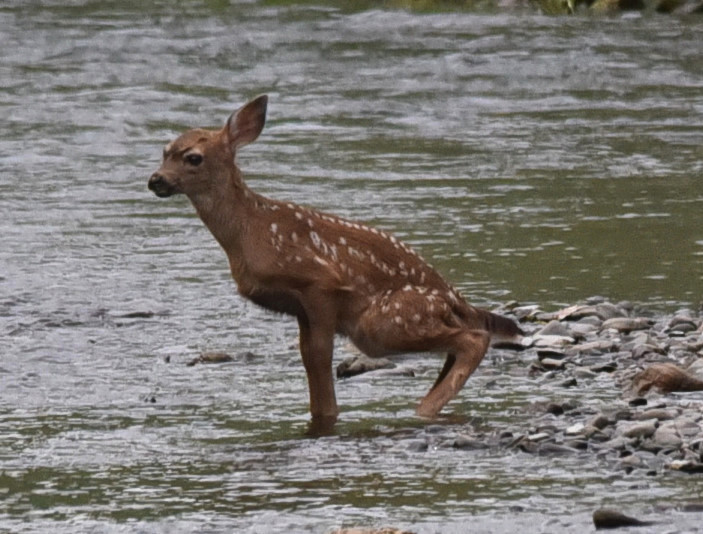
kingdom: Animalia
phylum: Chordata
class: Mammalia
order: Artiodactyla
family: Cervidae
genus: Odocoileus
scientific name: Odocoileus hemionus
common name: Mule deer
